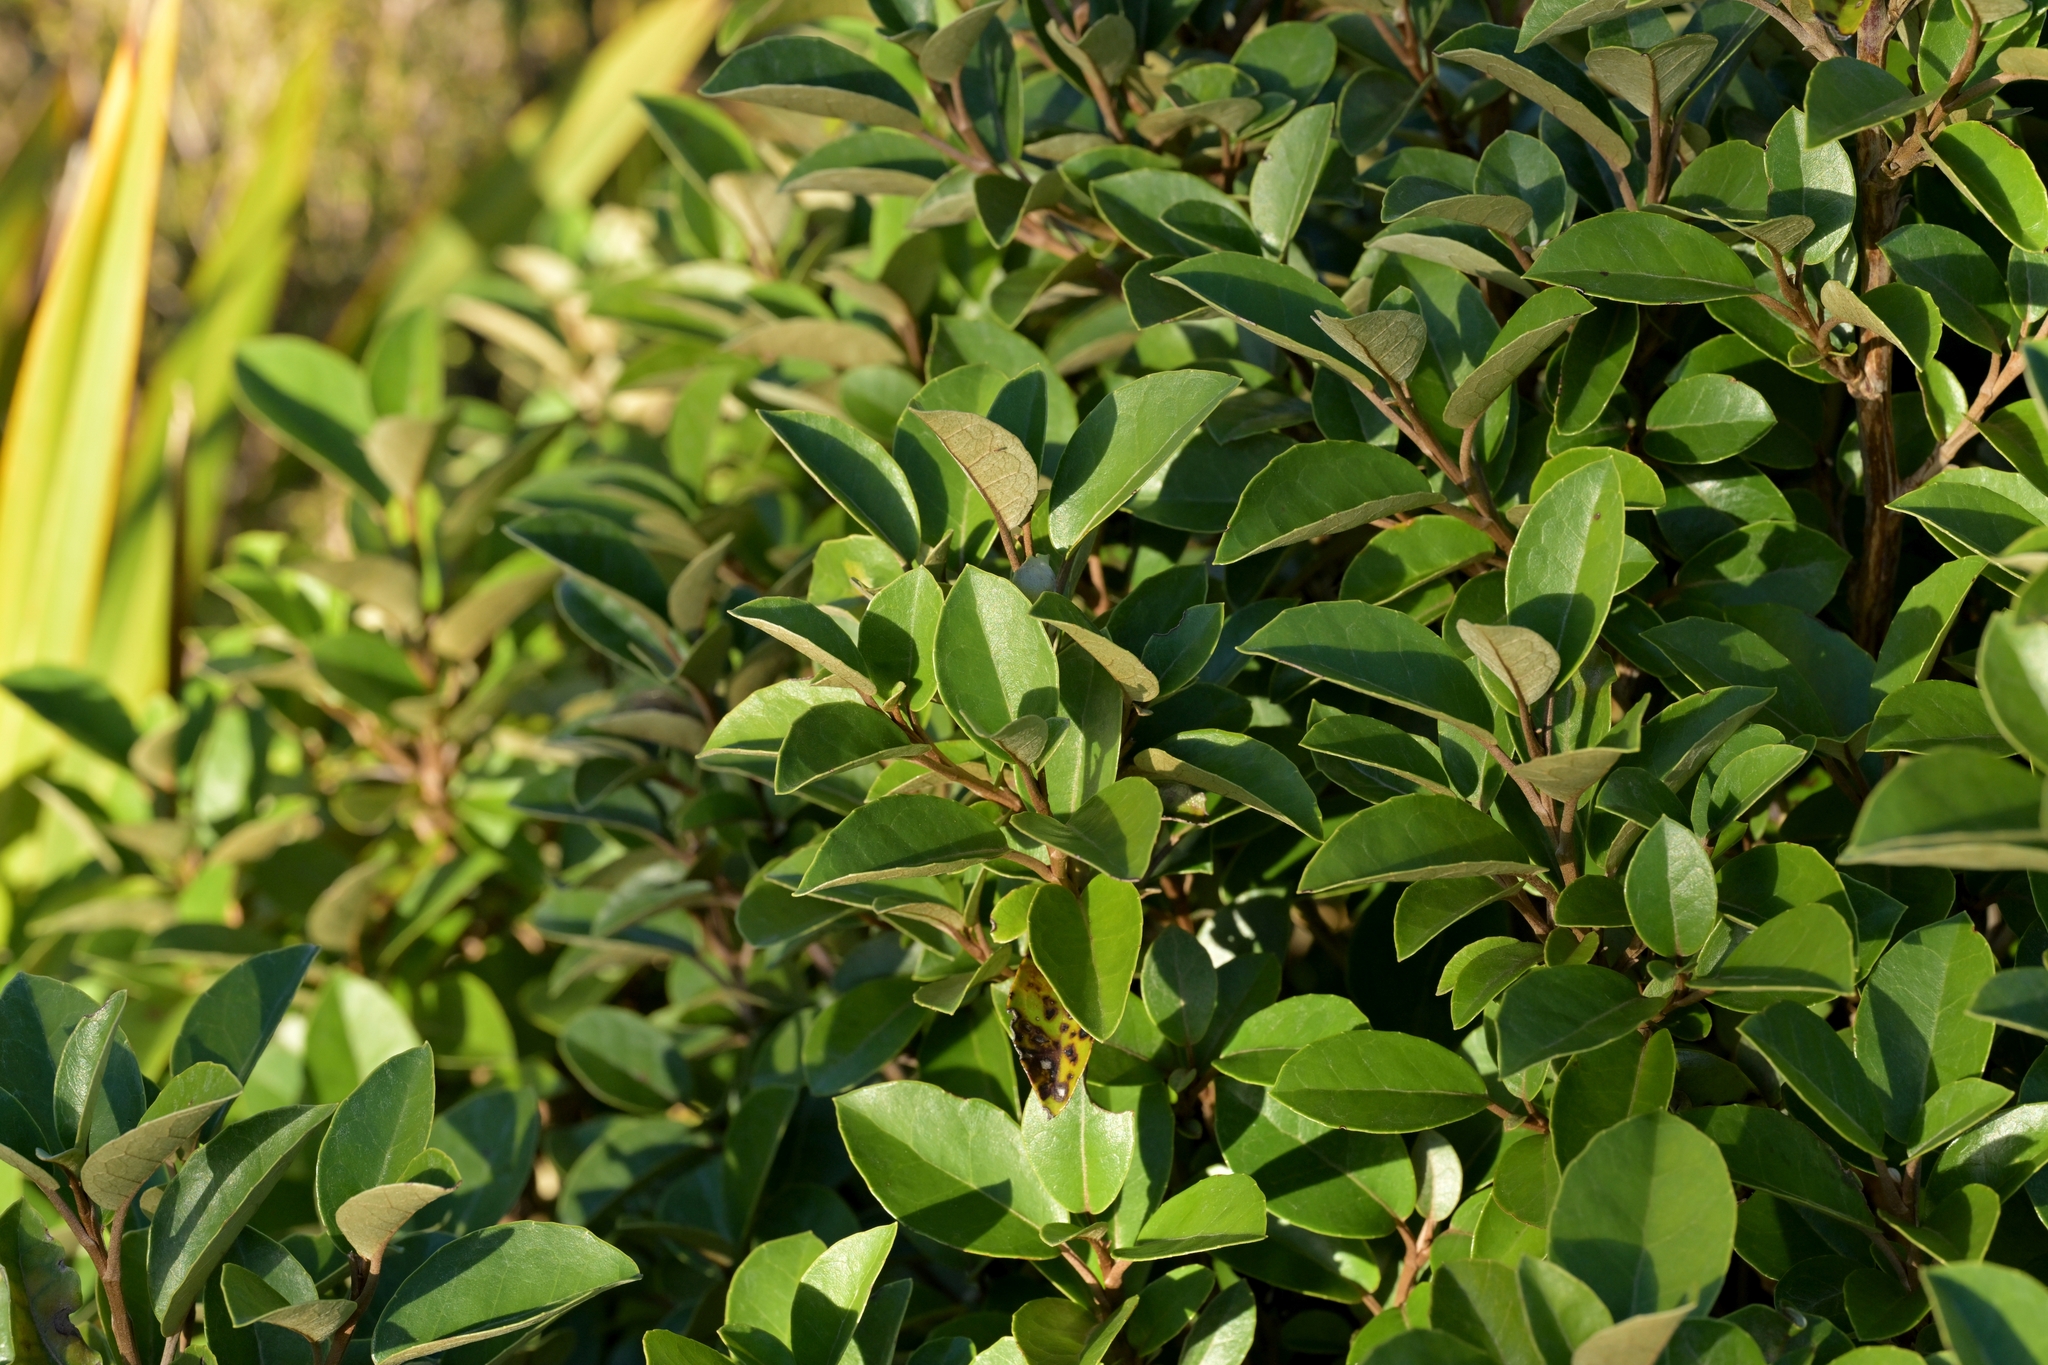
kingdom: Plantae
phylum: Tracheophyta
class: Magnoliopsida
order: Asterales
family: Asteraceae
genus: Olearia
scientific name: Olearia arborescens
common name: Glossy tree daisy
